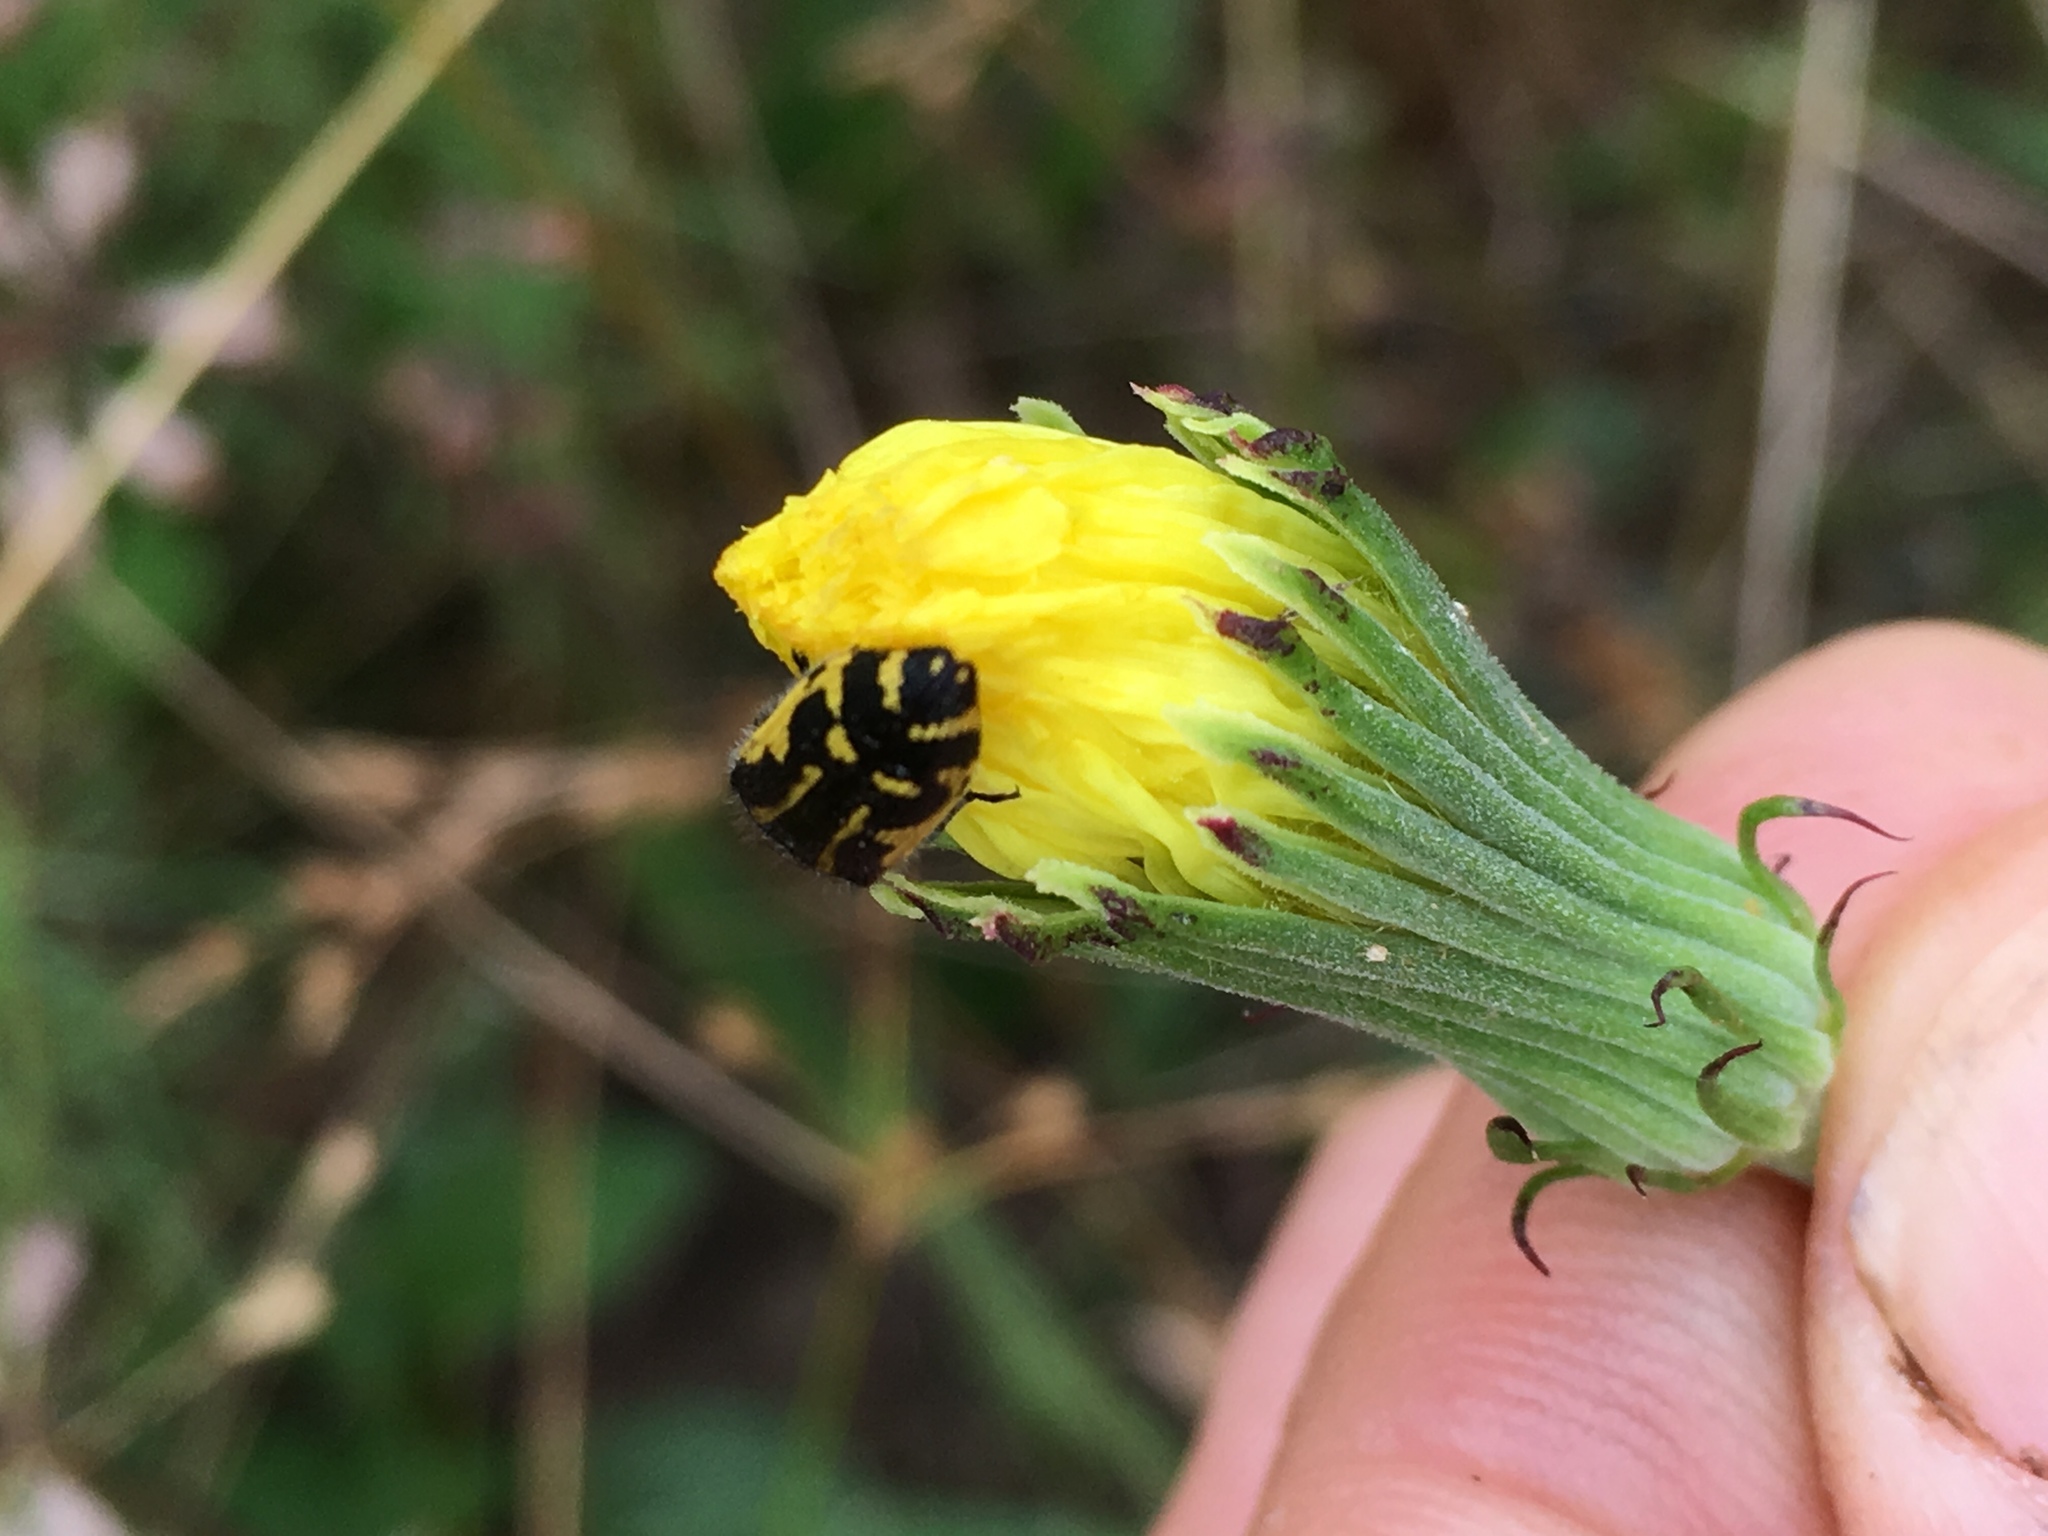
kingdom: Animalia
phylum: Arthropoda
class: Insecta
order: Coleoptera
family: Buprestidae
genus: Acmaeodera
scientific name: Acmaeodera pulchella
